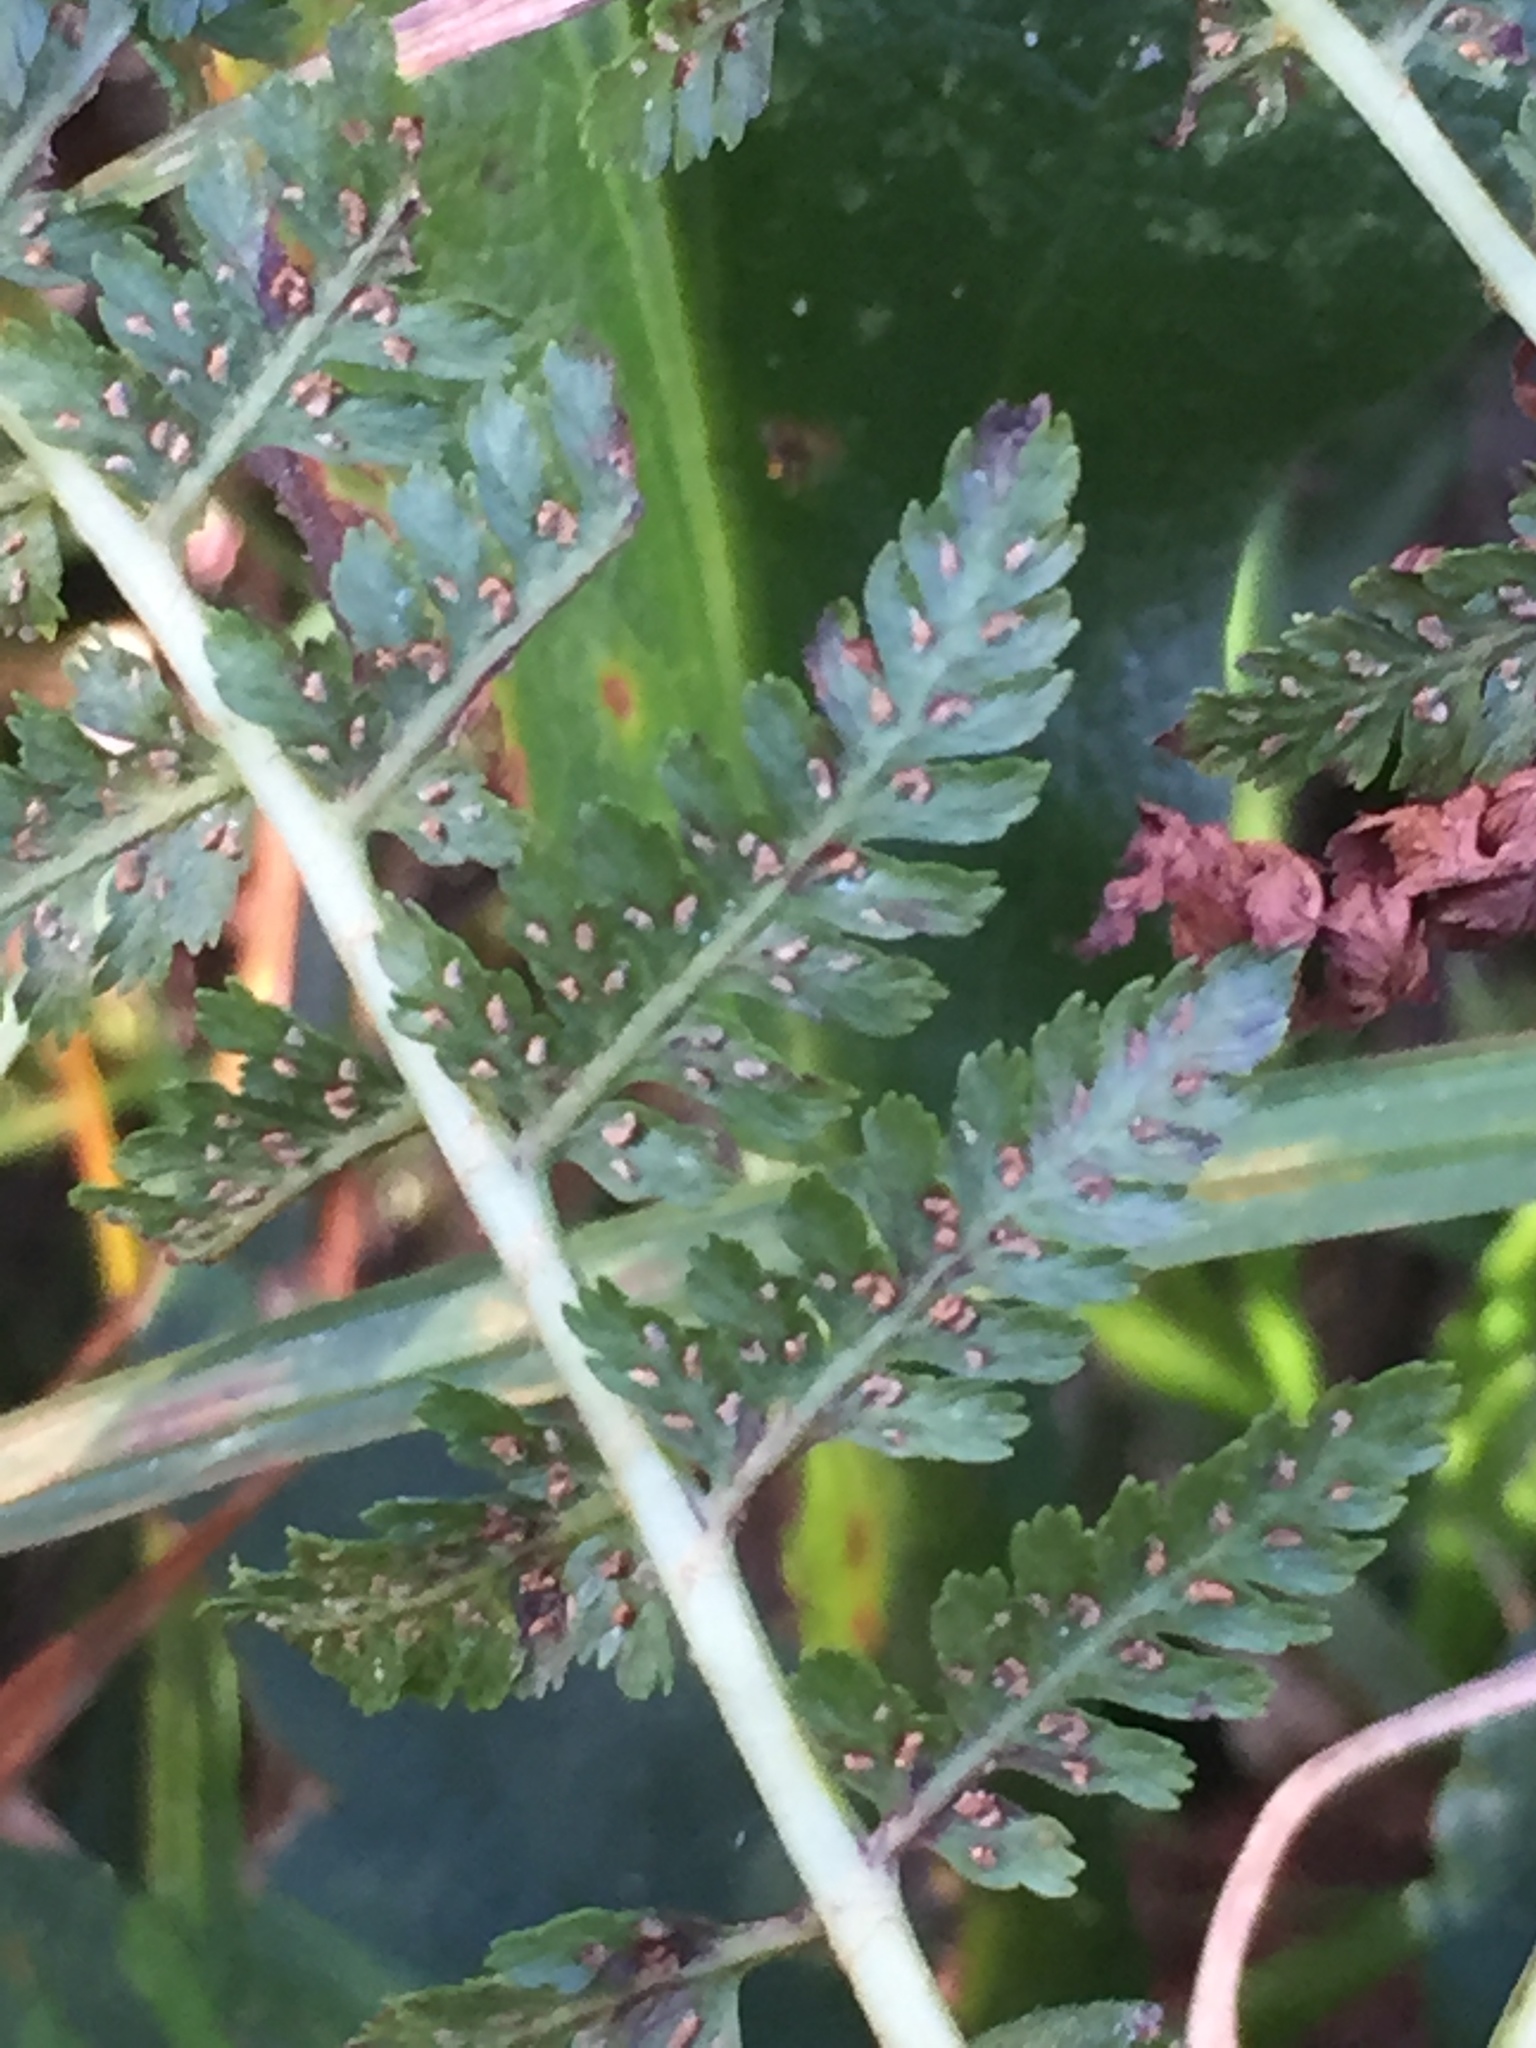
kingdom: Plantae
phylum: Tracheophyta
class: Polypodiopsida
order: Polypodiales
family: Athyriaceae
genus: Athyrium
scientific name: Athyrium asplenioides
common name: Southern lady fern
